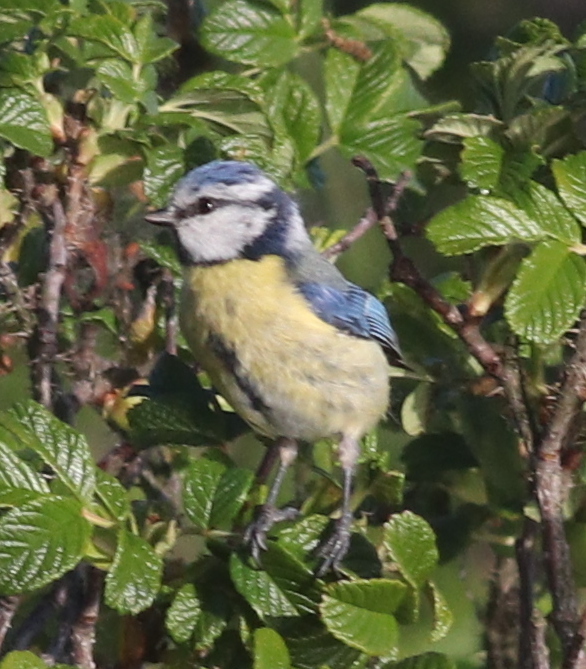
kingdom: Animalia
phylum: Chordata
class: Aves
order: Passeriformes
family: Paridae
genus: Cyanistes
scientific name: Cyanistes caeruleus
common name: Eurasian blue tit
